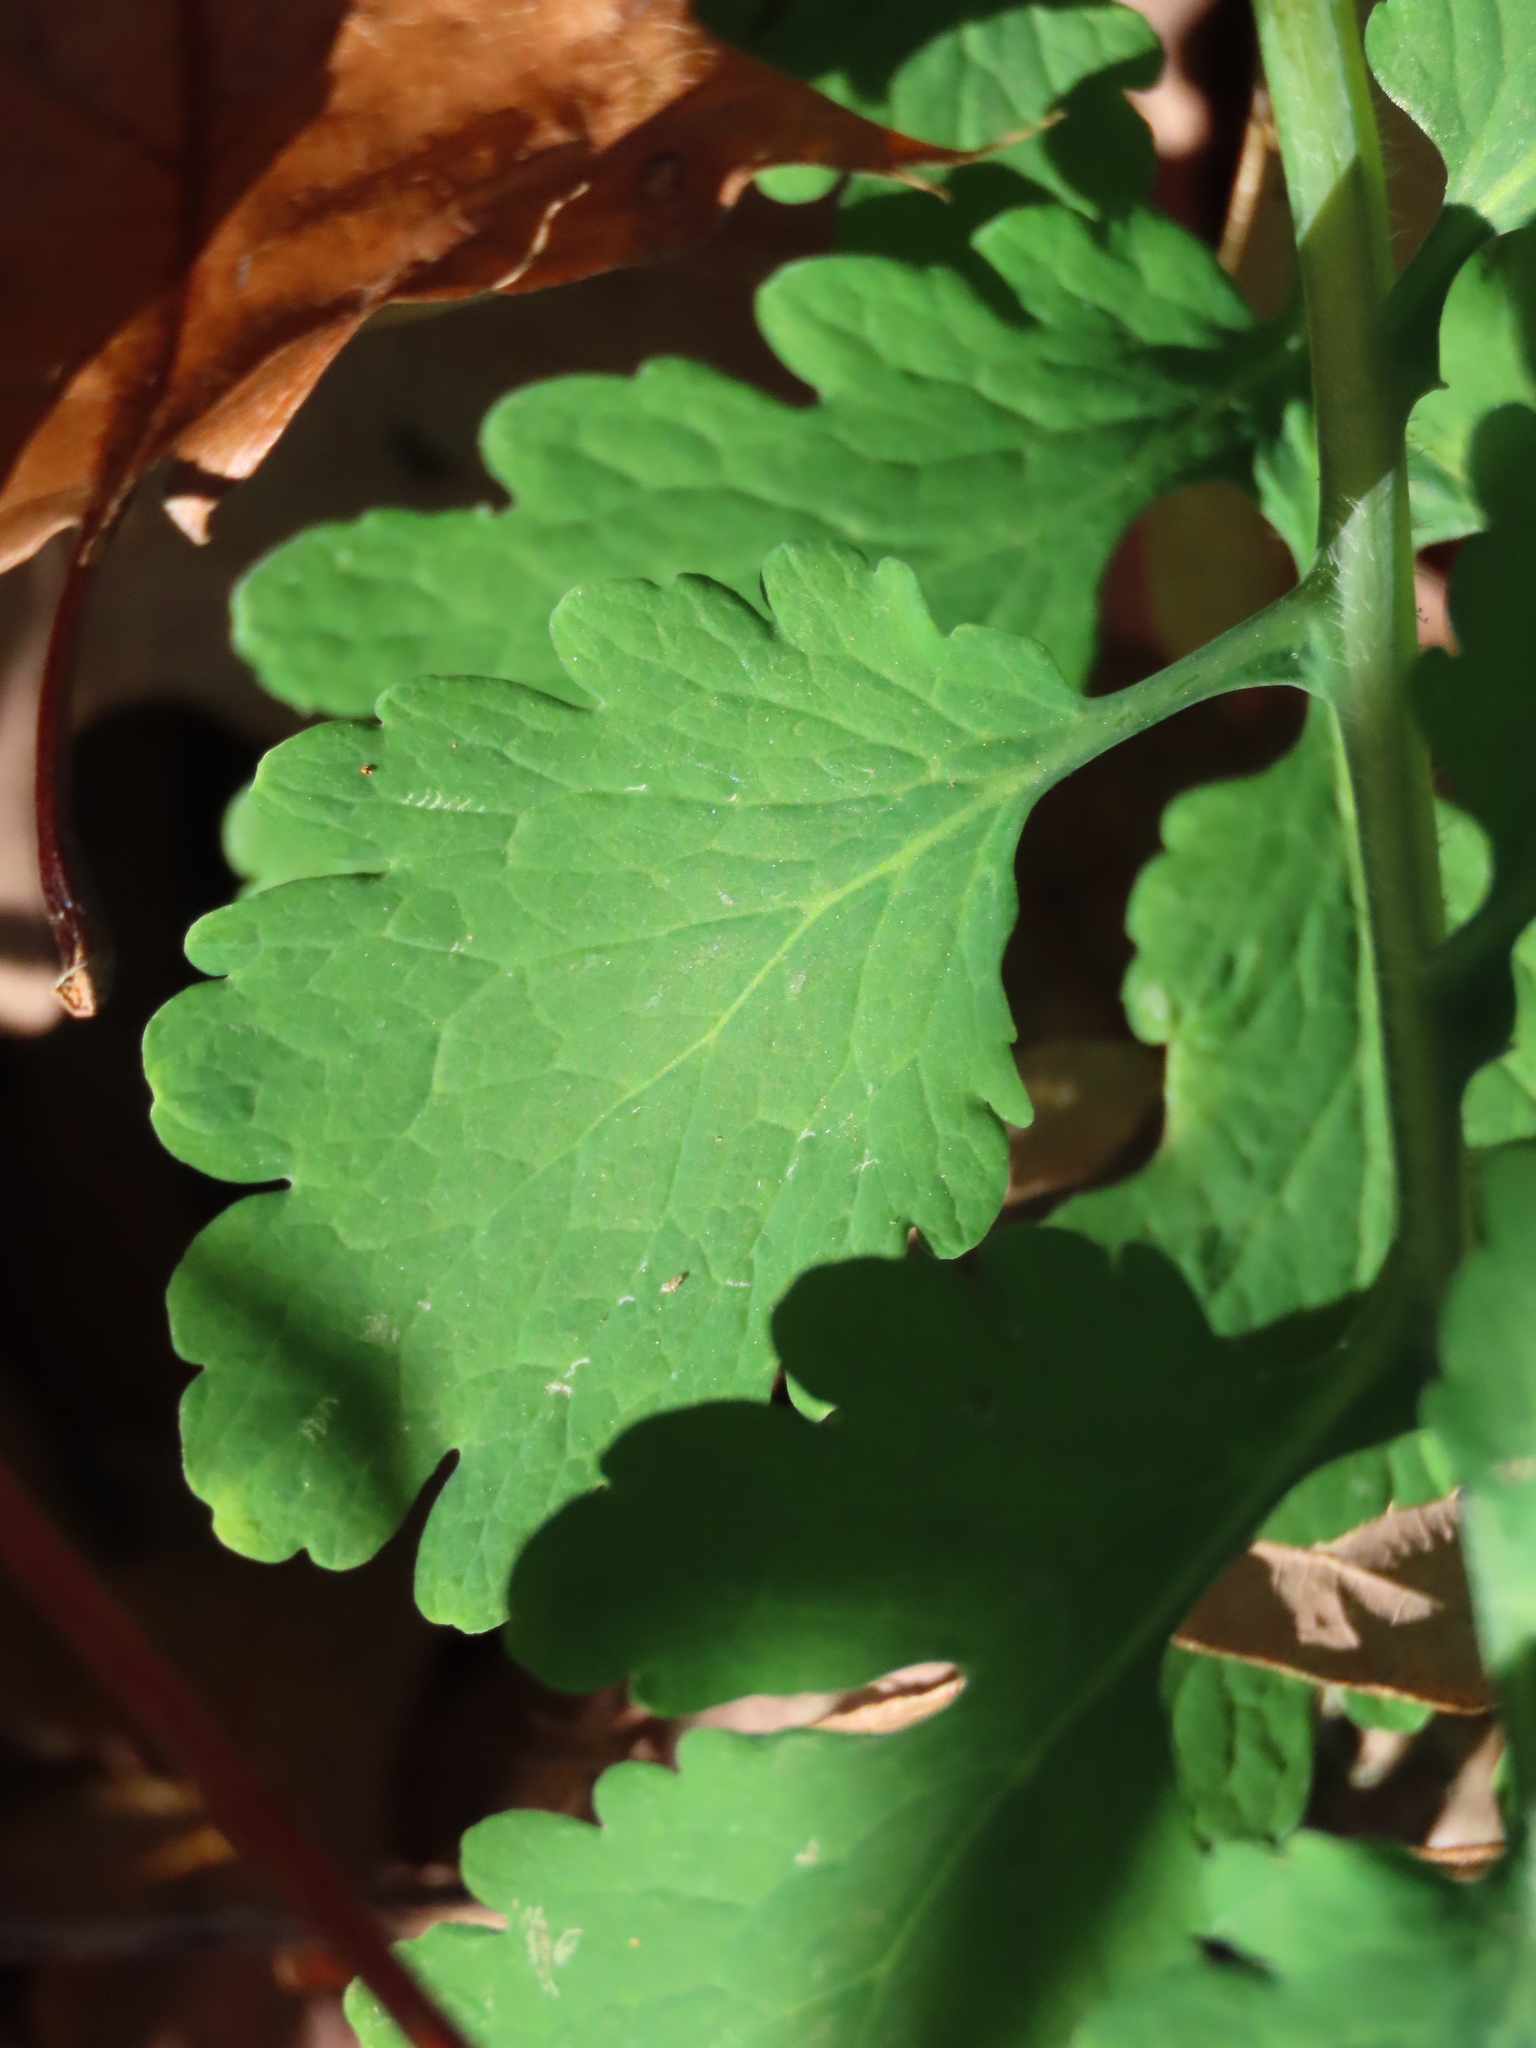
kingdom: Plantae
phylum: Tracheophyta
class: Magnoliopsida
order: Ranunculales
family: Papaveraceae
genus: Chelidonium
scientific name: Chelidonium majus
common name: Greater celandine
